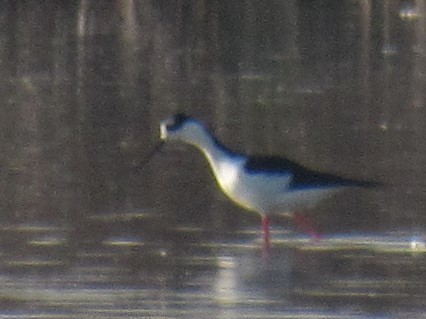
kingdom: Animalia
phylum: Chordata
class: Aves
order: Charadriiformes
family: Recurvirostridae
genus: Himantopus
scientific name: Himantopus mexicanus
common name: Black-necked stilt
